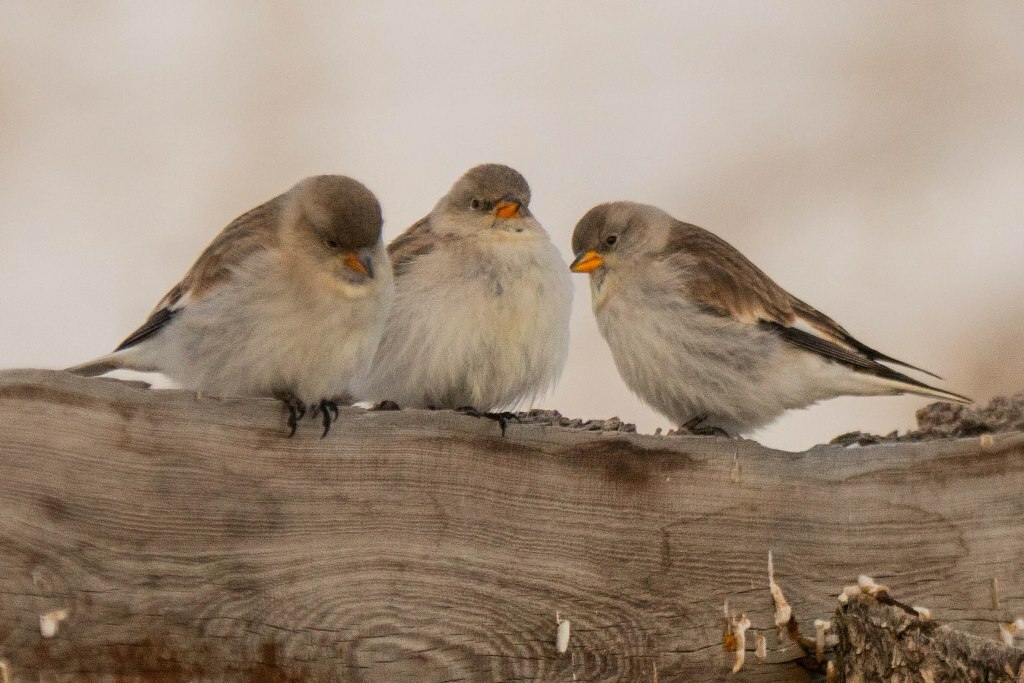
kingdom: Animalia
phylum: Chordata
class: Aves
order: Passeriformes
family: Passeridae
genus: Montifringilla
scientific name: Montifringilla nivalis
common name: White-winged snowfinch
